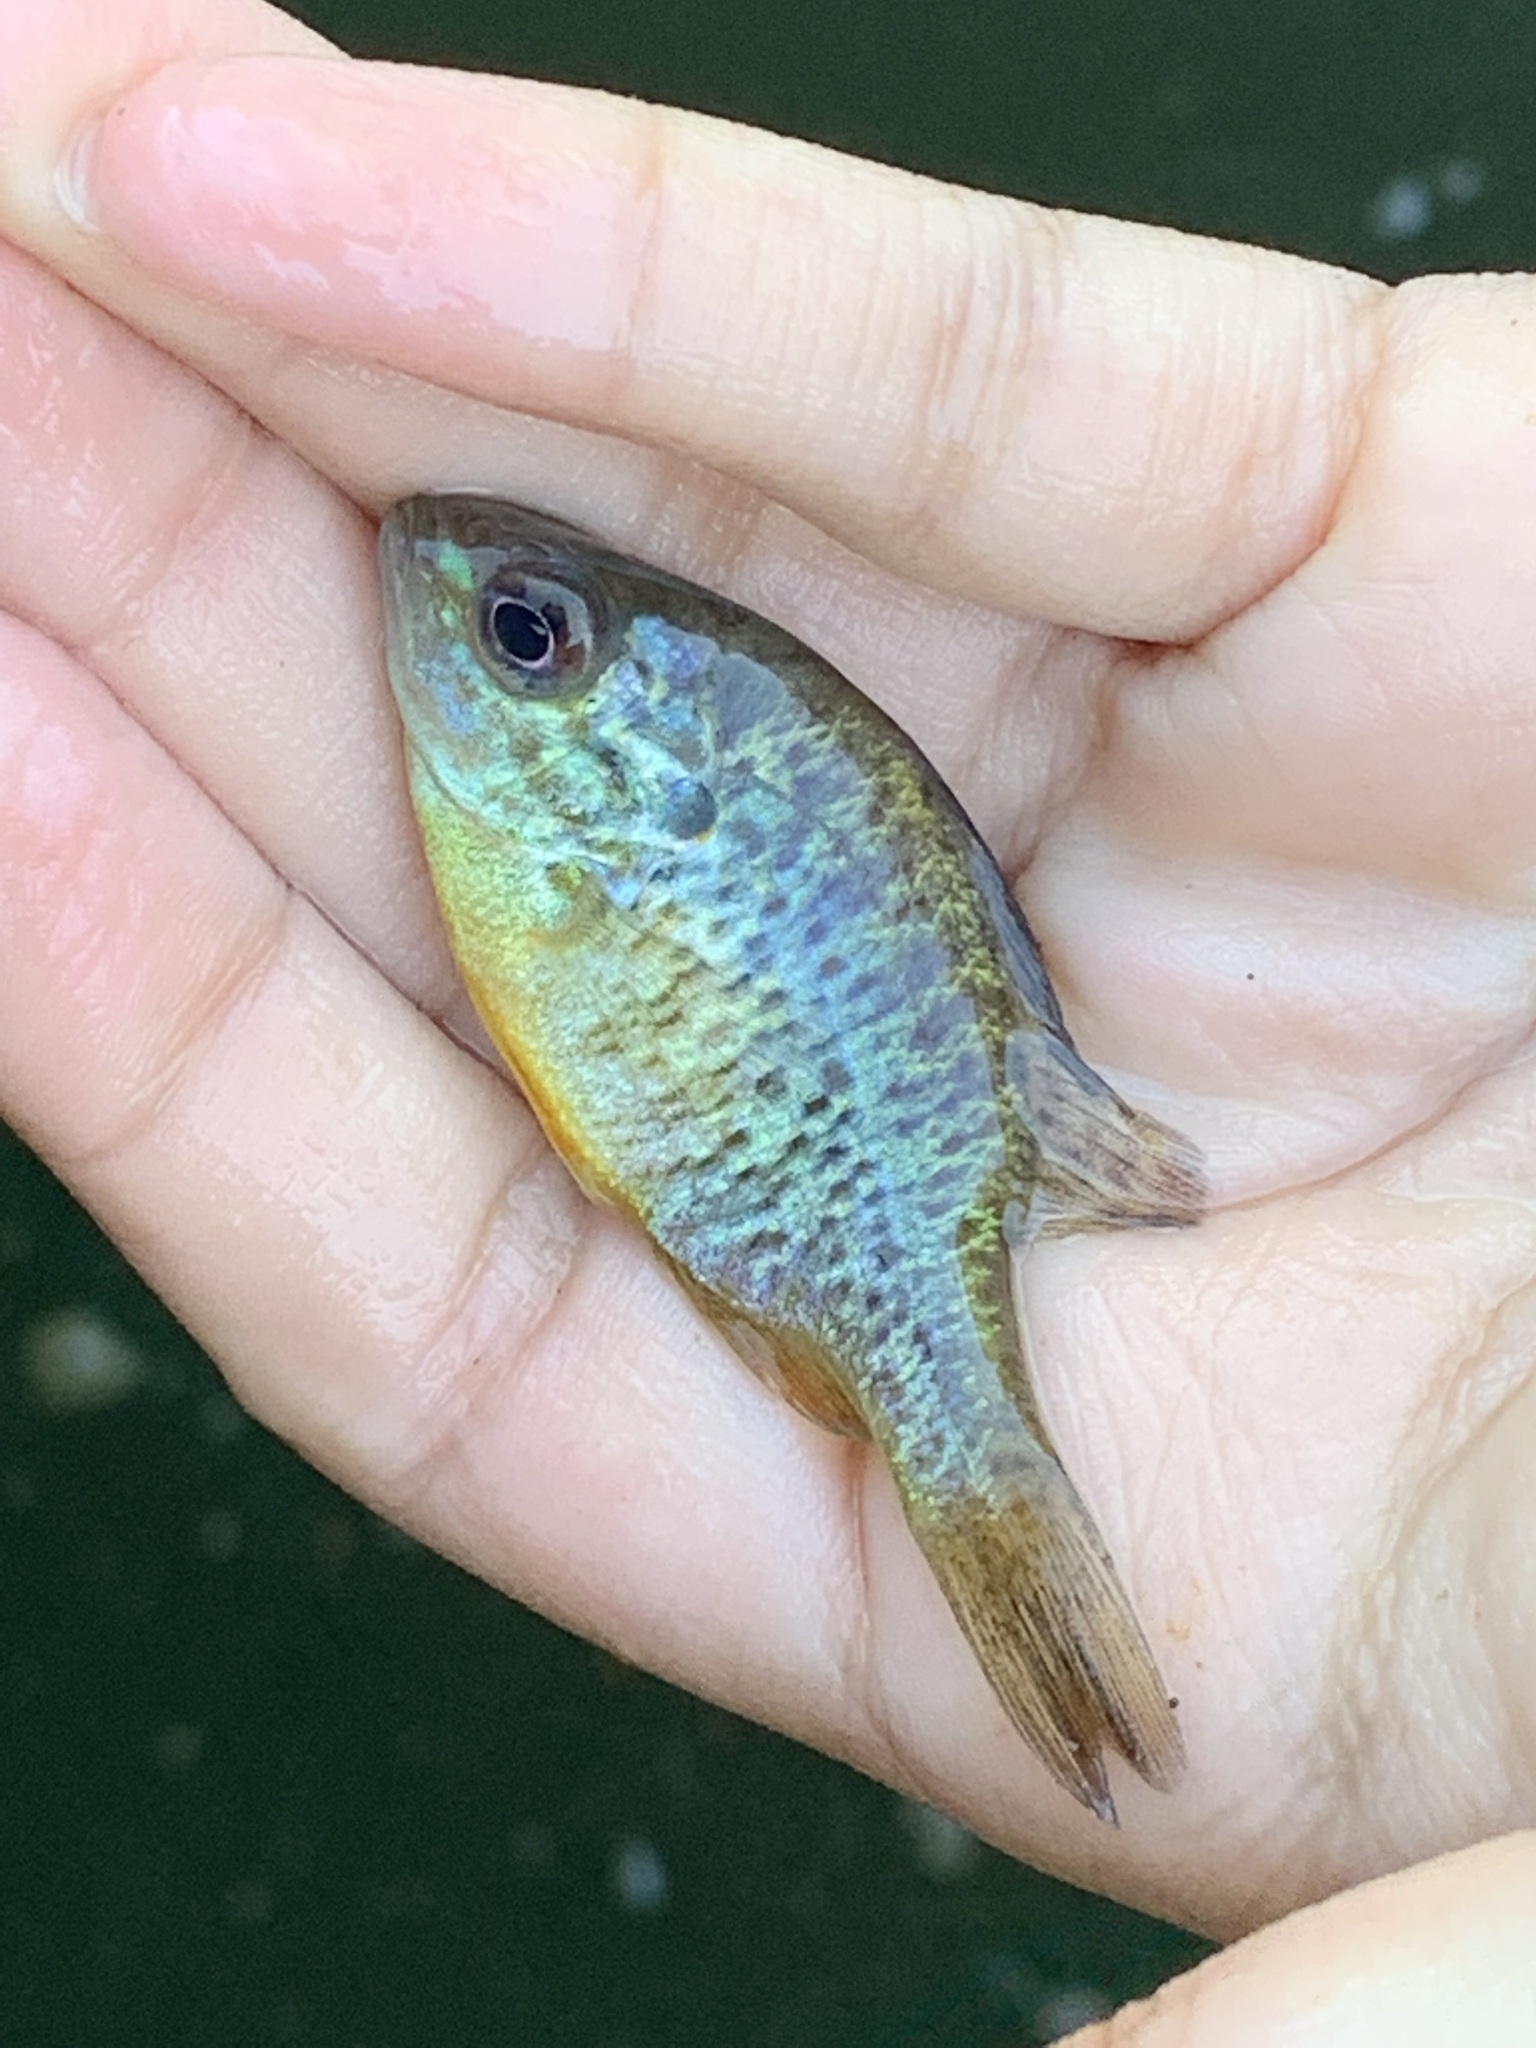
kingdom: Animalia
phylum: Chordata
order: Perciformes
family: Centrarchidae
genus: Lepomis
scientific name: Lepomis gibbosus
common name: Pumpkinseed
